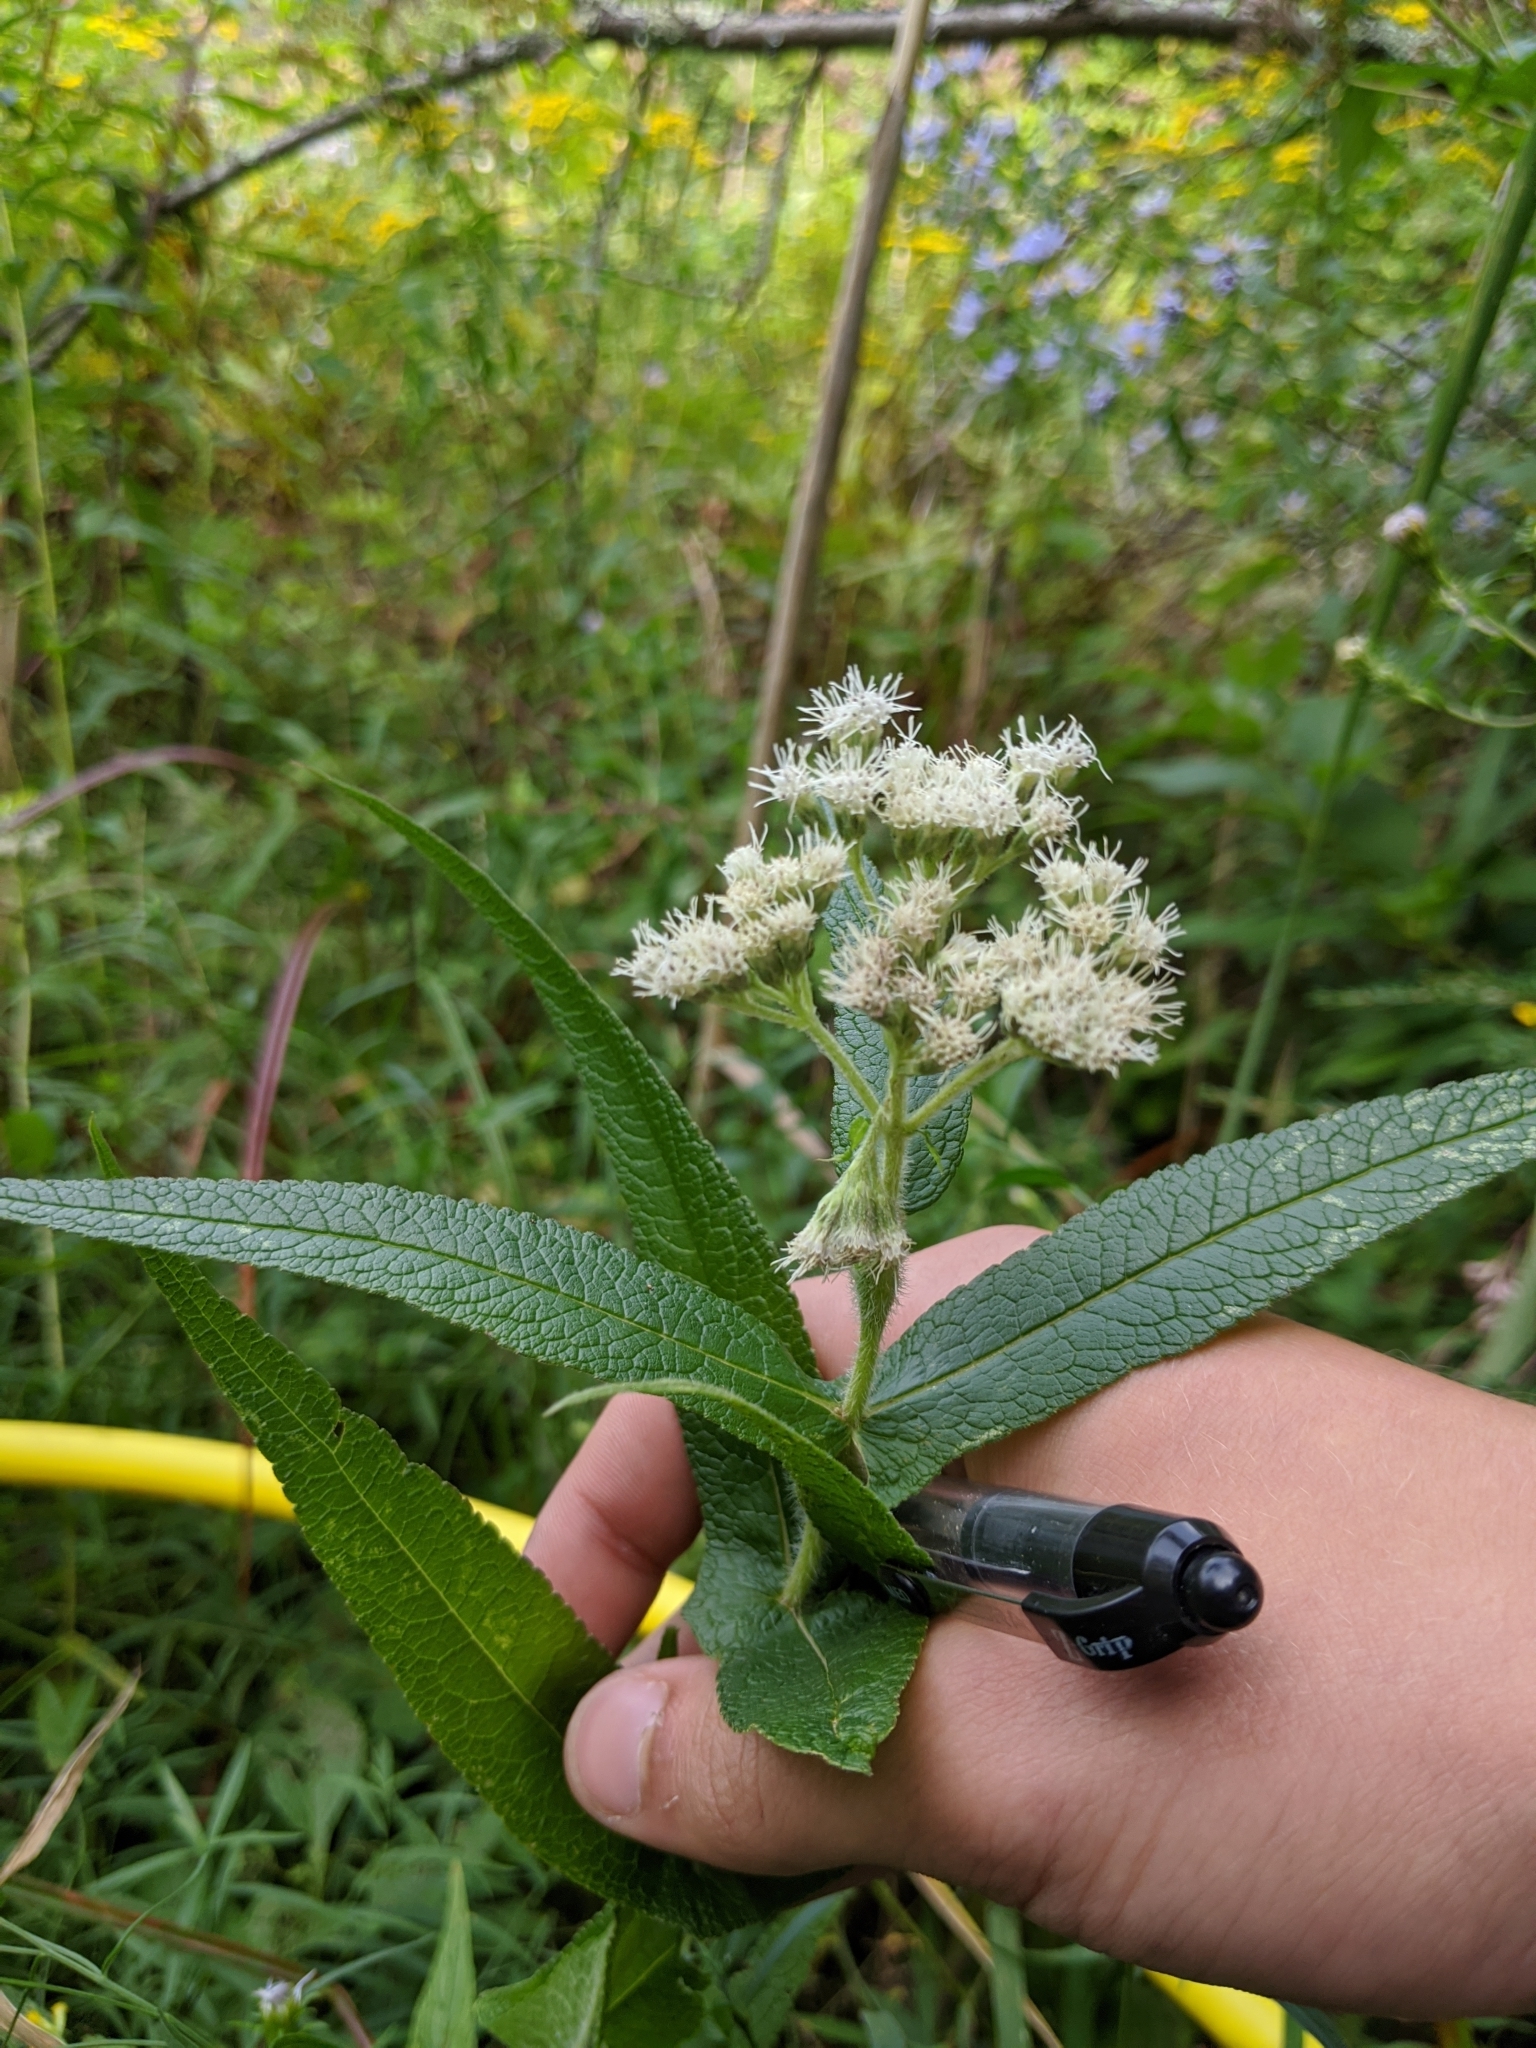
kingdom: Plantae
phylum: Tracheophyta
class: Magnoliopsida
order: Asterales
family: Asteraceae
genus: Eupatorium
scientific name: Eupatorium perfoliatum
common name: Boneset
